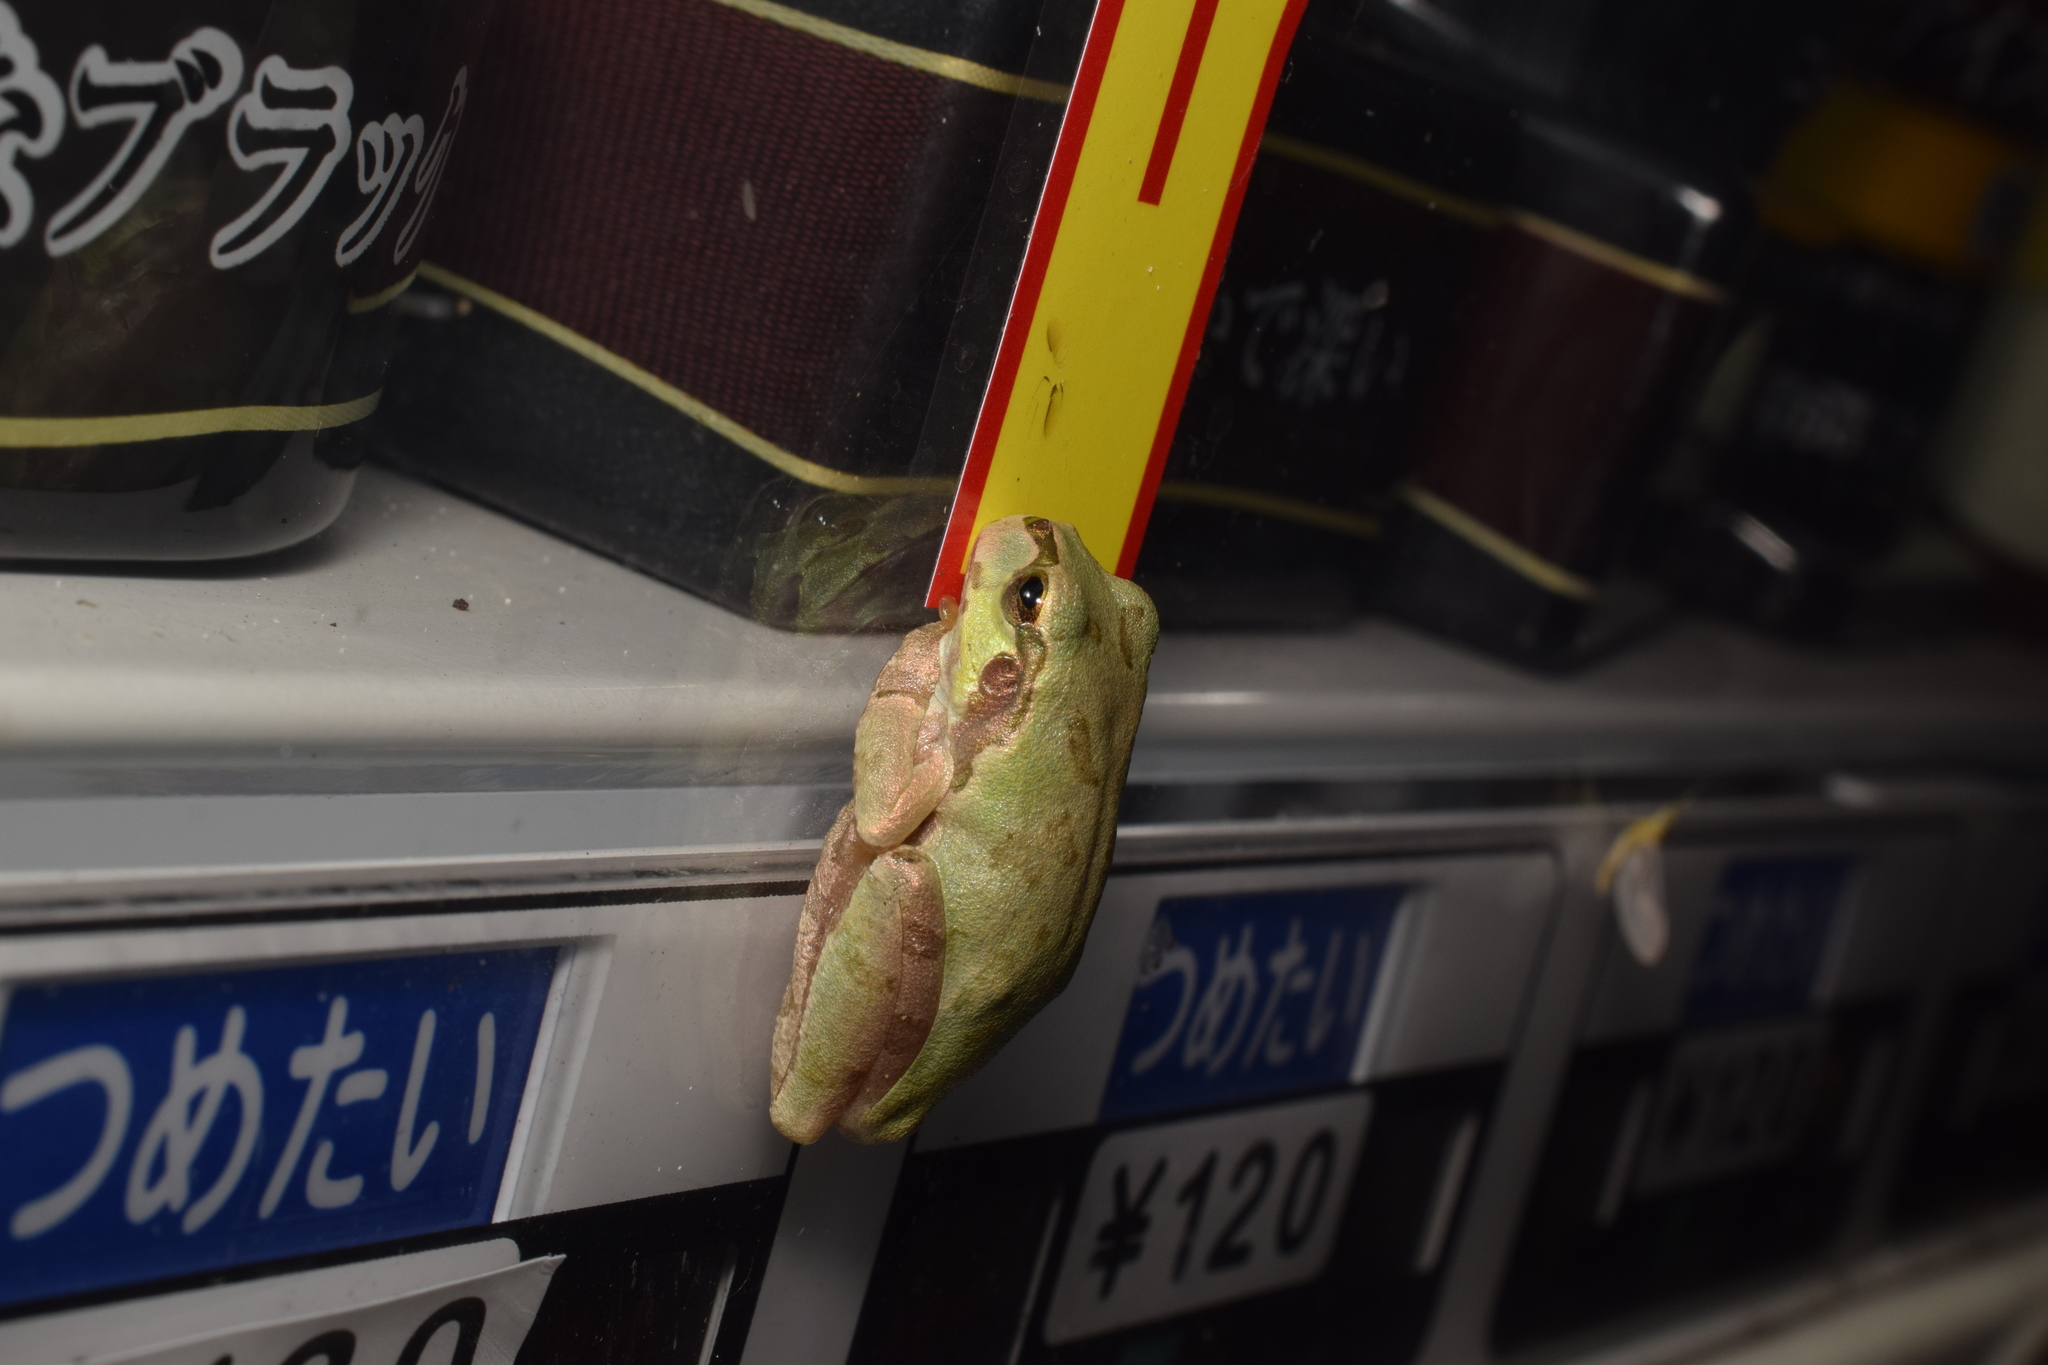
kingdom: Animalia
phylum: Chordata
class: Amphibia
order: Anura
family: Hylidae
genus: Dryophytes
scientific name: Dryophytes japonicus
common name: Japanese treefrog
